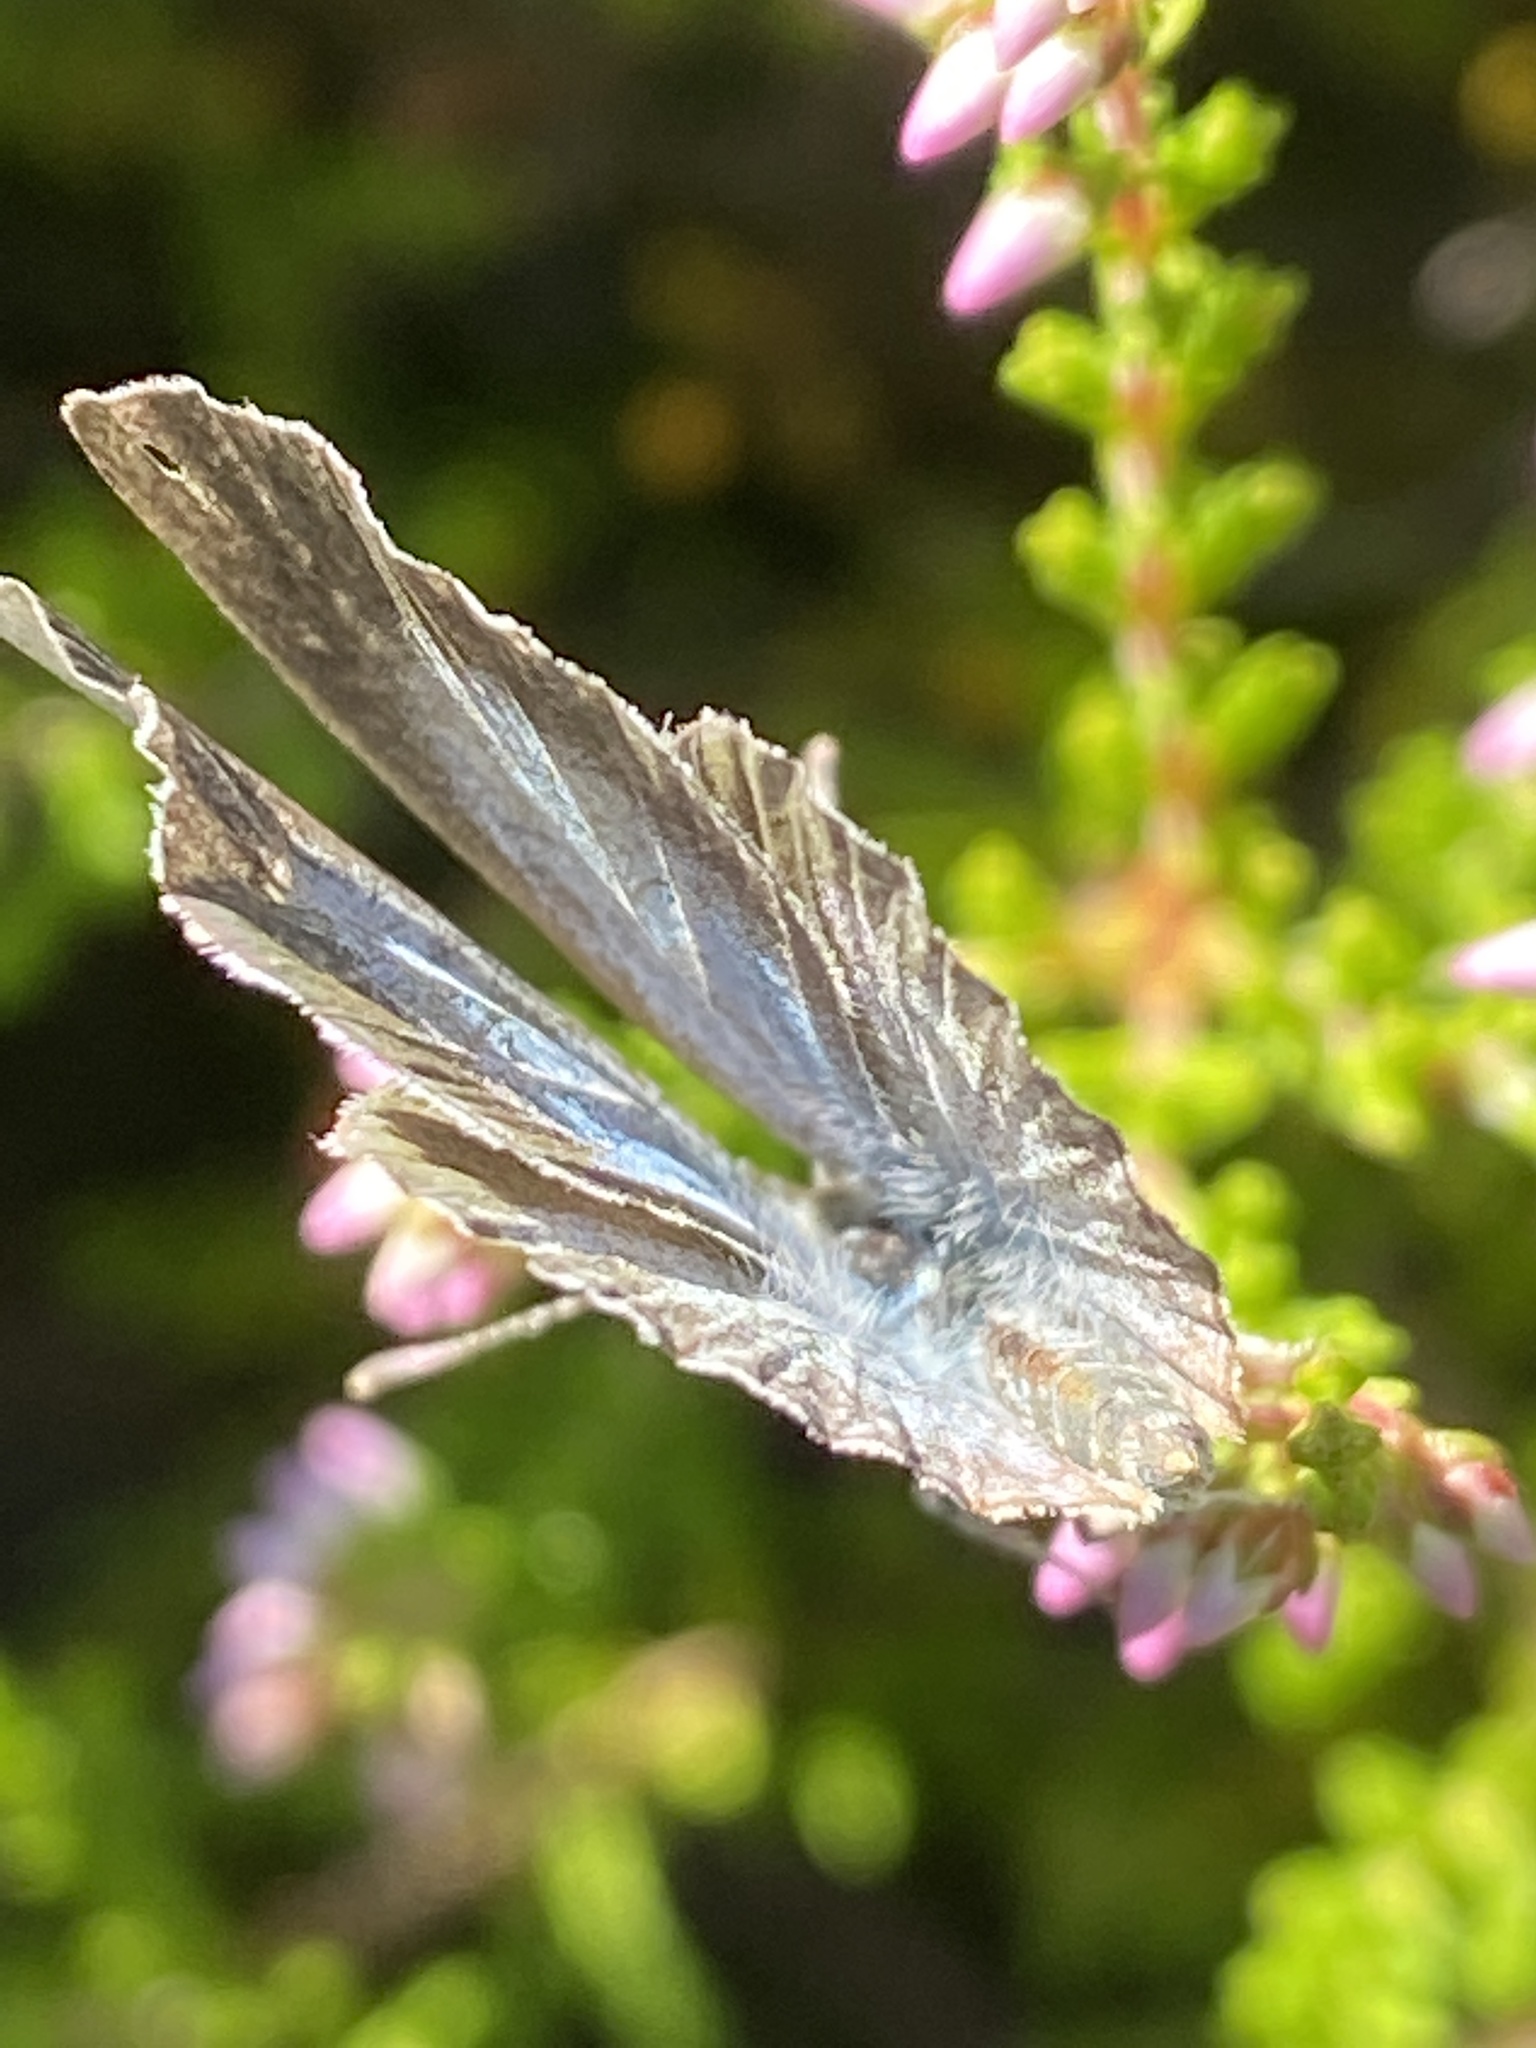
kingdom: Animalia
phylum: Arthropoda
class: Insecta
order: Lepidoptera
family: Lycaenidae
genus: Celastrina
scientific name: Celastrina argiolus
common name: Holly blue
